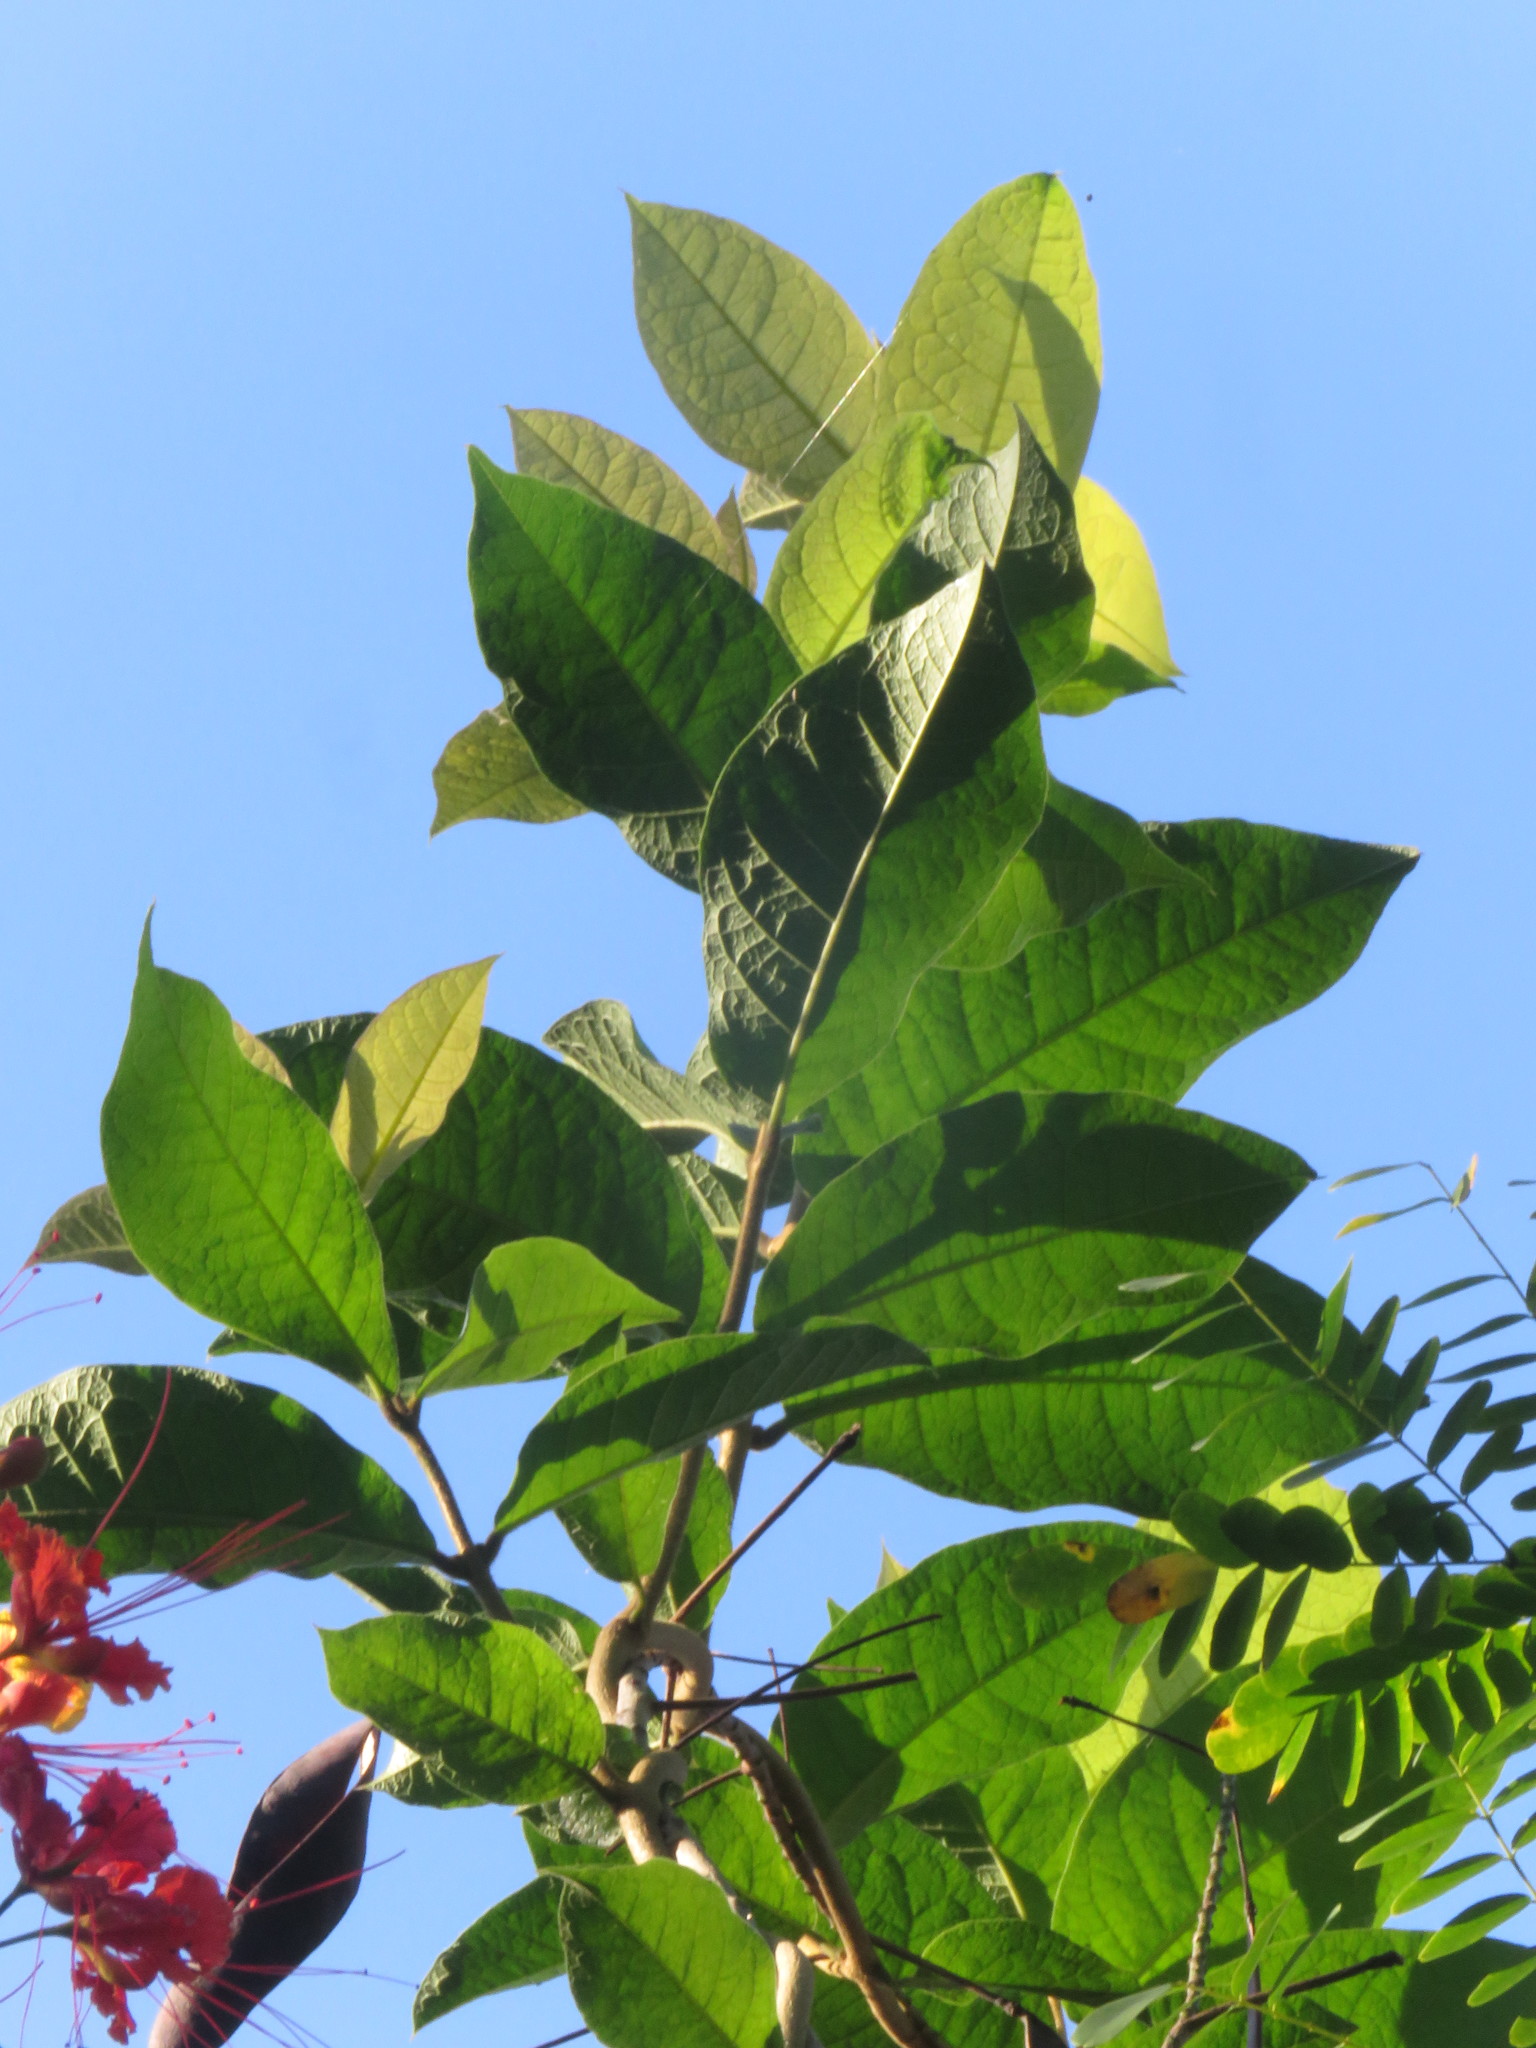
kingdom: Plantae
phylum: Tracheophyta
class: Magnoliopsida
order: Lamiales
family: Verbenaceae
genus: Petrea
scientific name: Petrea volubilis
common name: Queen's-wreath
